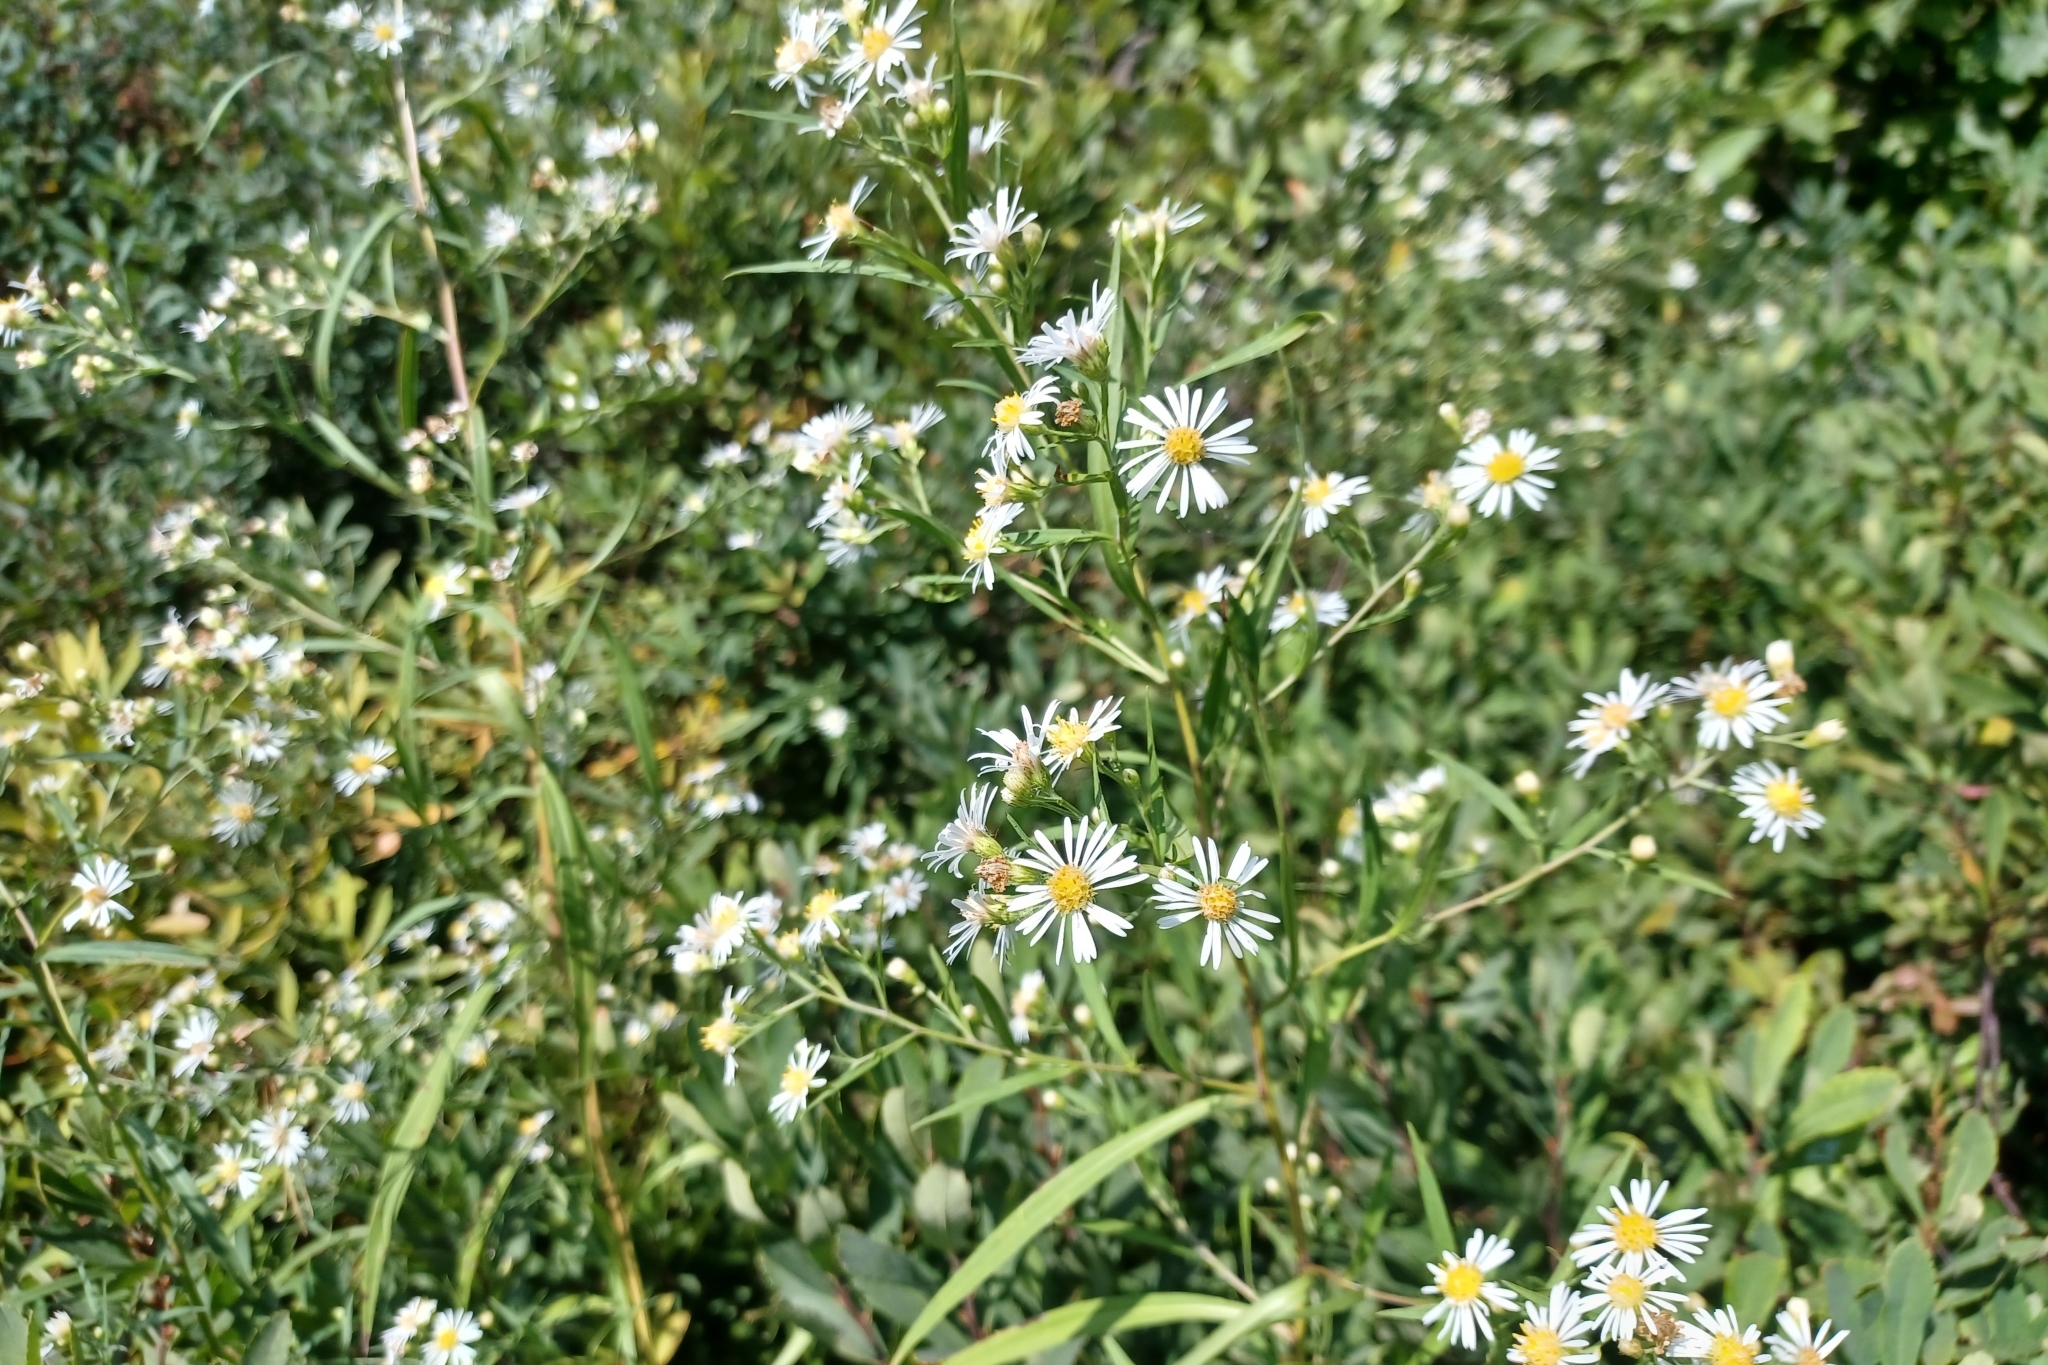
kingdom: Plantae
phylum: Tracheophyta
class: Magnoliopsida
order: Asterales
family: Asteraceae
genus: Symphyotrichum
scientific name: Symphyotrichum lanceolatum
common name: Panicled aster
